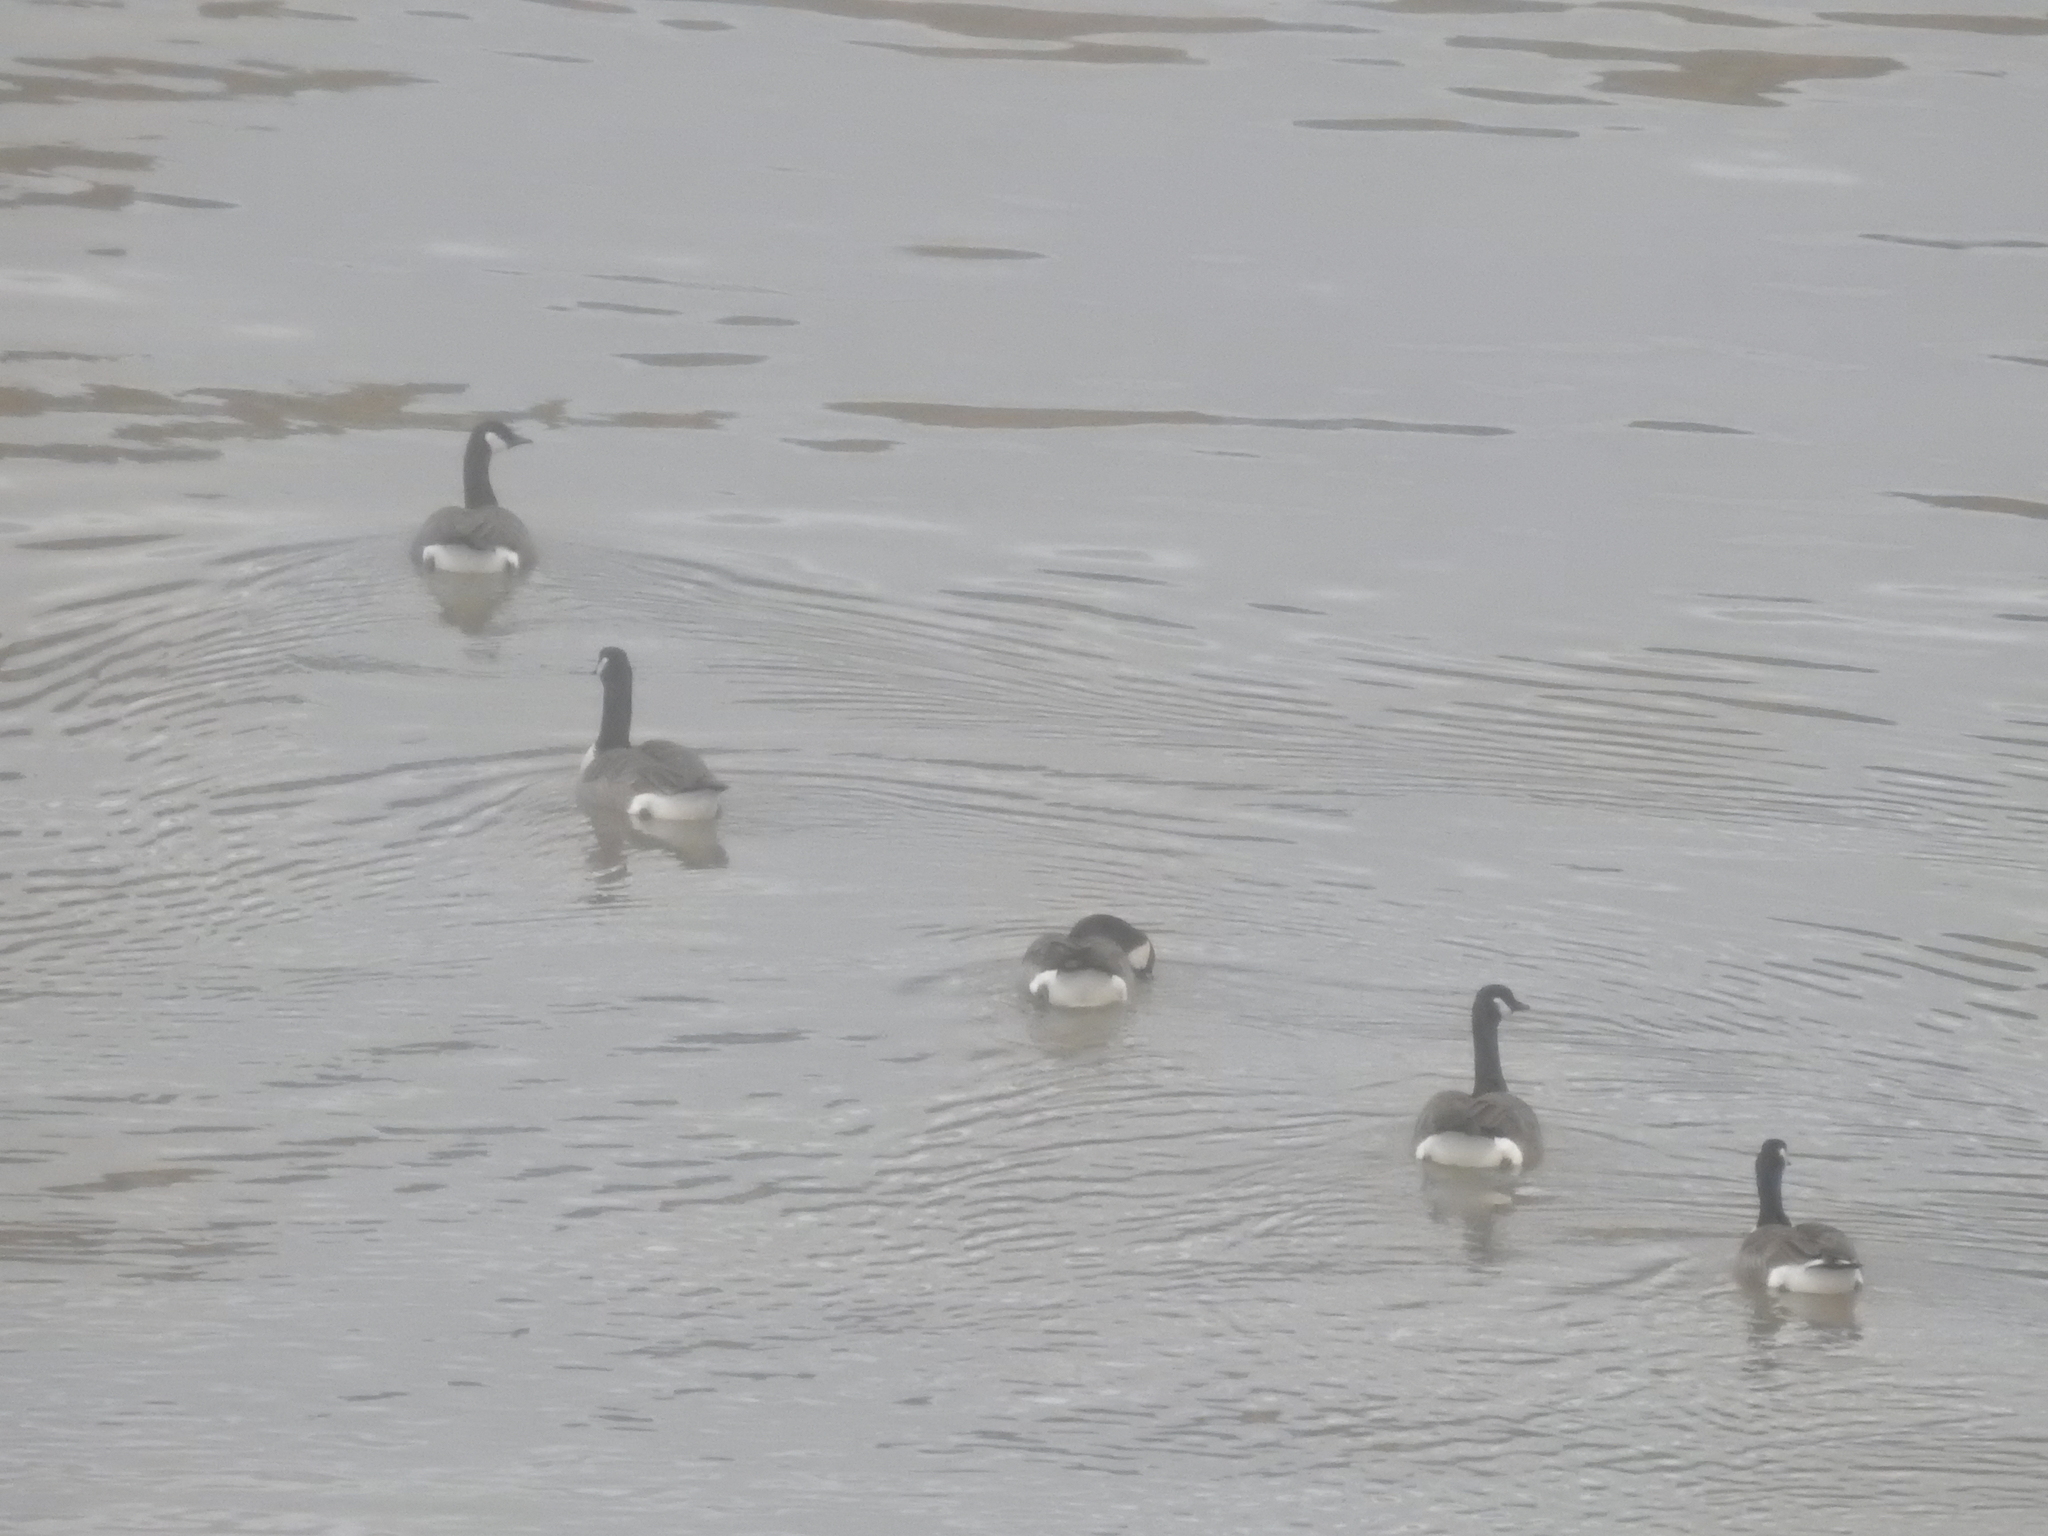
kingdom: Animalia
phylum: Chordata
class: Aves
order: Anseriformes
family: Anatidae
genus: Branta
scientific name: Branta canadensis
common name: Canada goose
